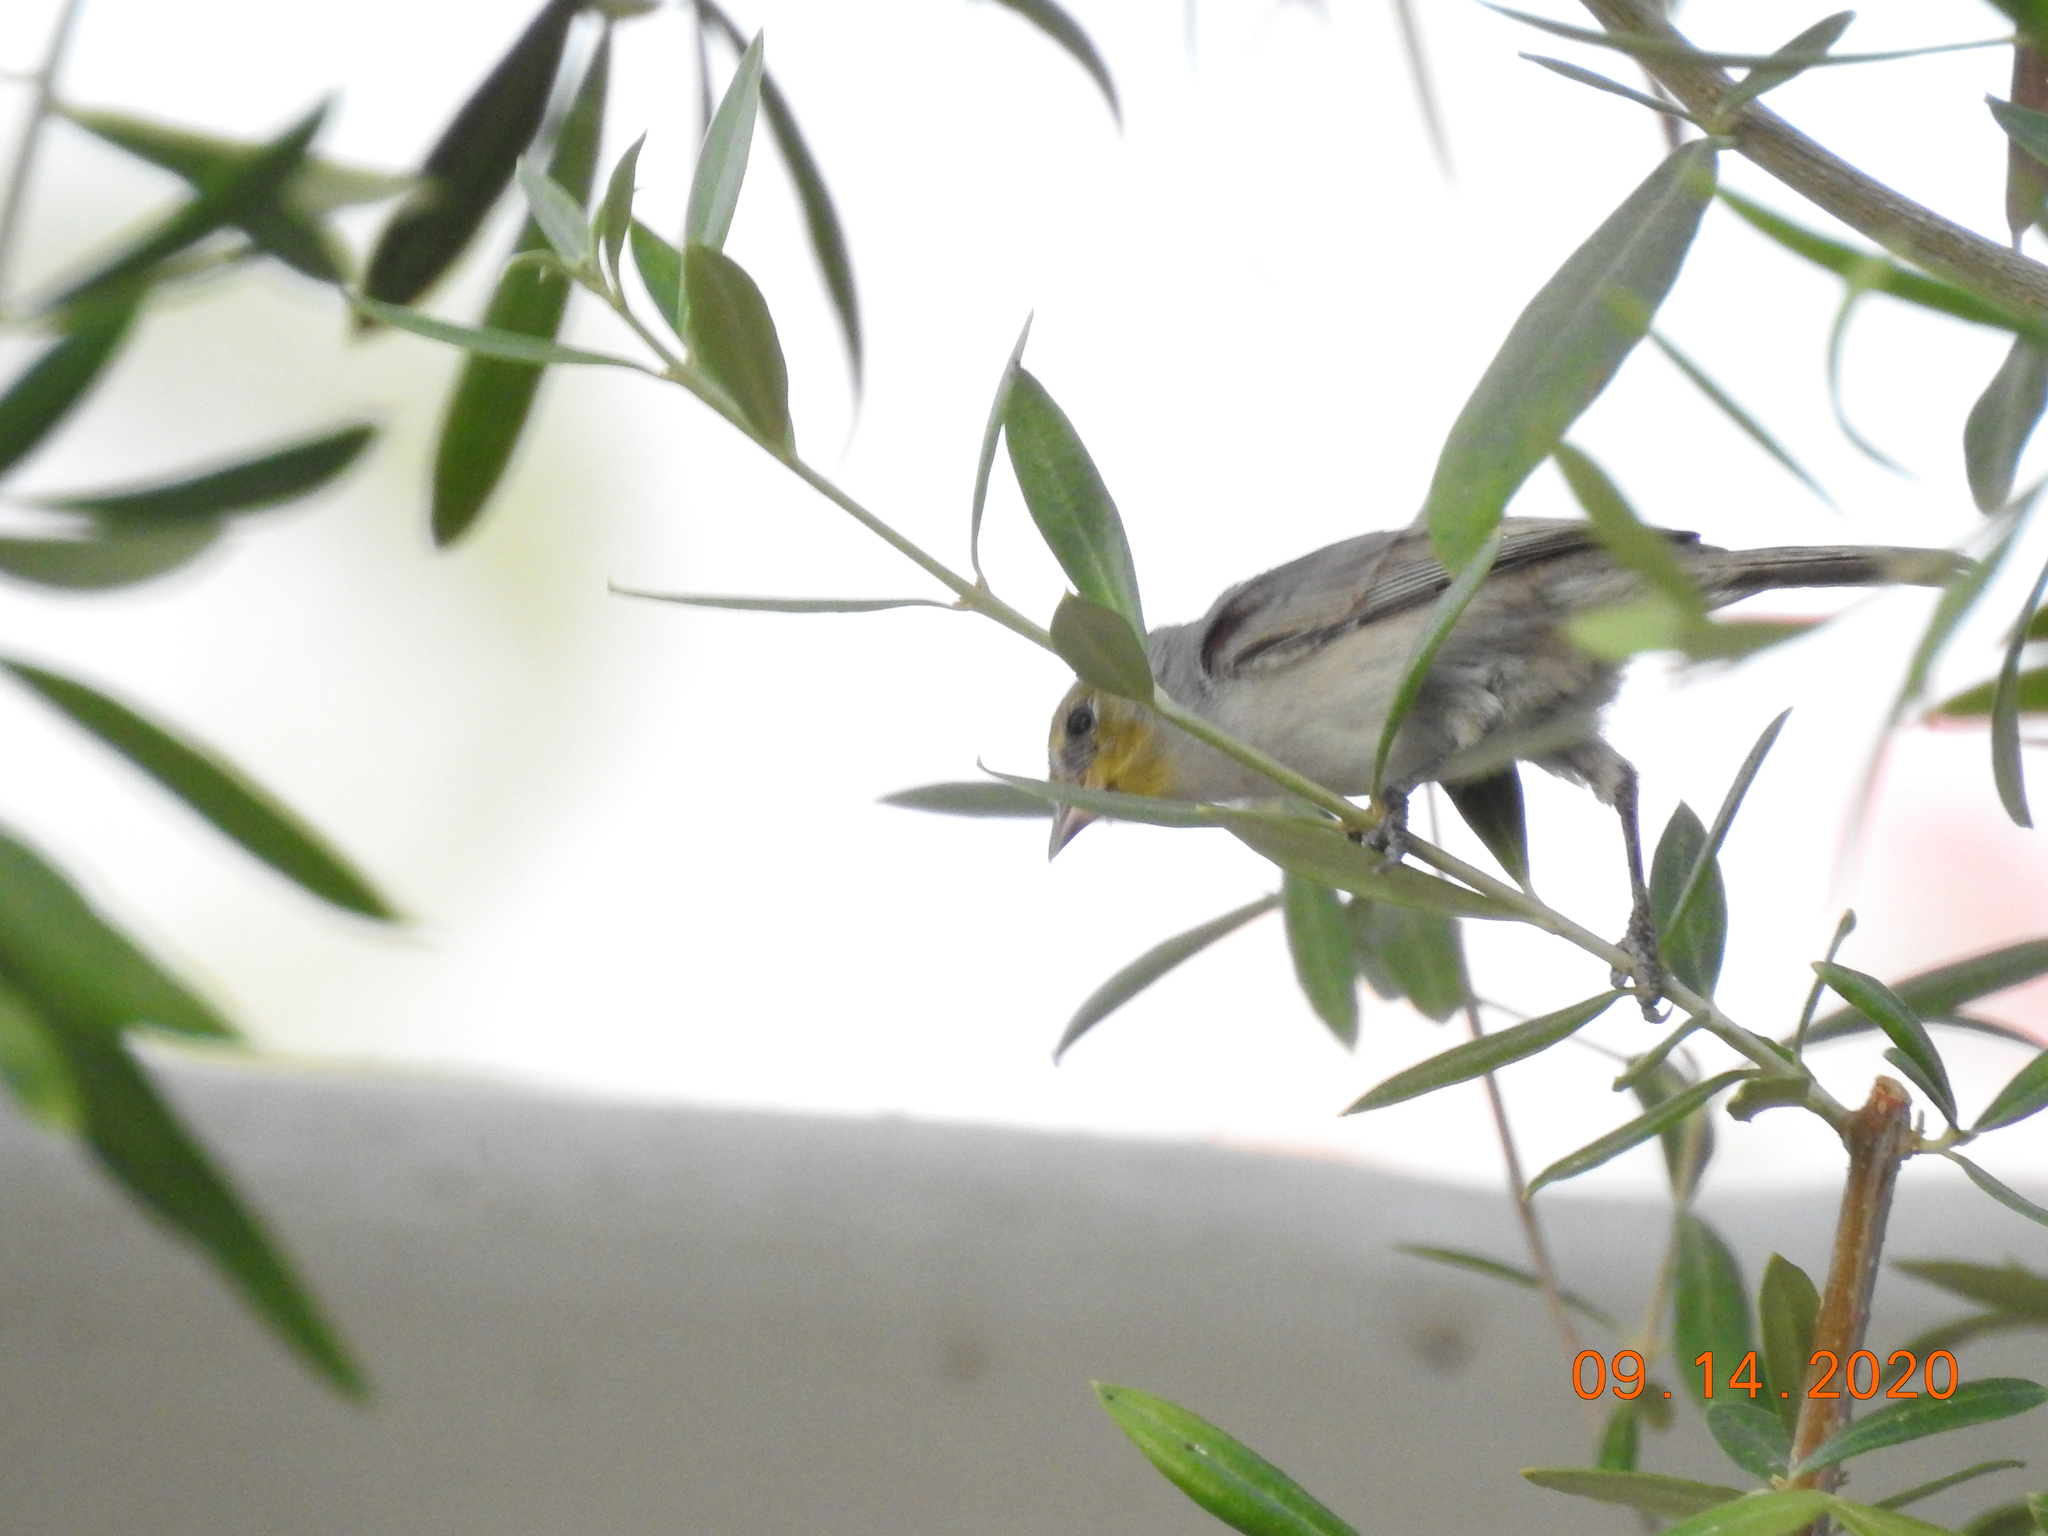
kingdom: Animalia
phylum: Chordata
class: Aves
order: Passeriformes
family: Remizidae
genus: Auriparus
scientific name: Auriparus flaviceps
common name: Verdin
